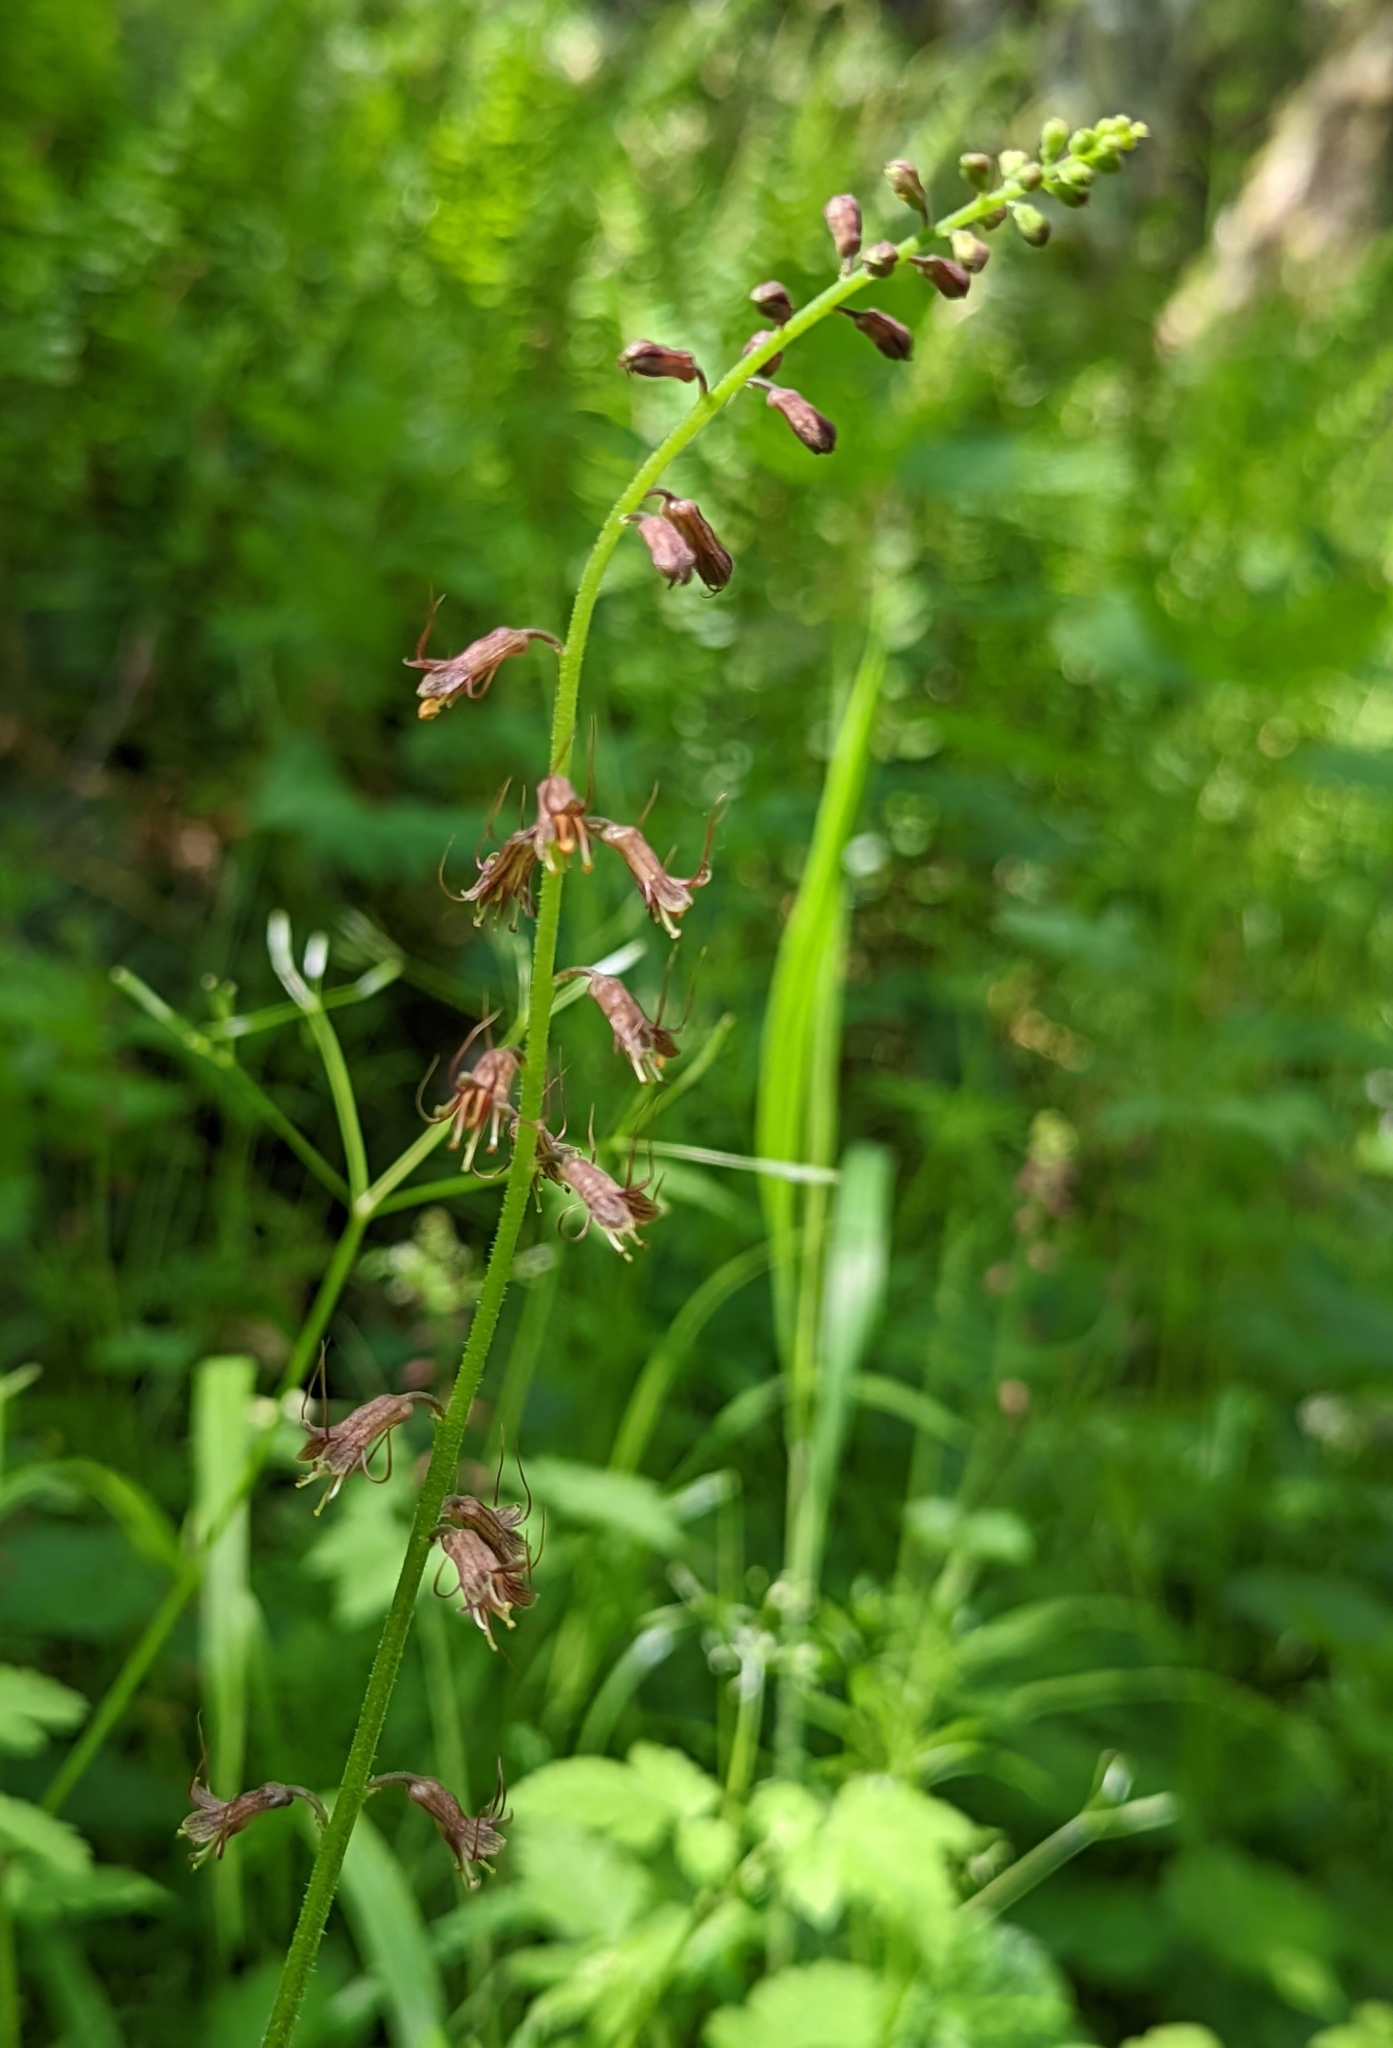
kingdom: Plantae
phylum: Tracheophyta
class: Magnoliopsida
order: Saxifragales
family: Saxifragaceae
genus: Tolmiea
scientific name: Tolmiea menziesii
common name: Pick-a-back-plant
